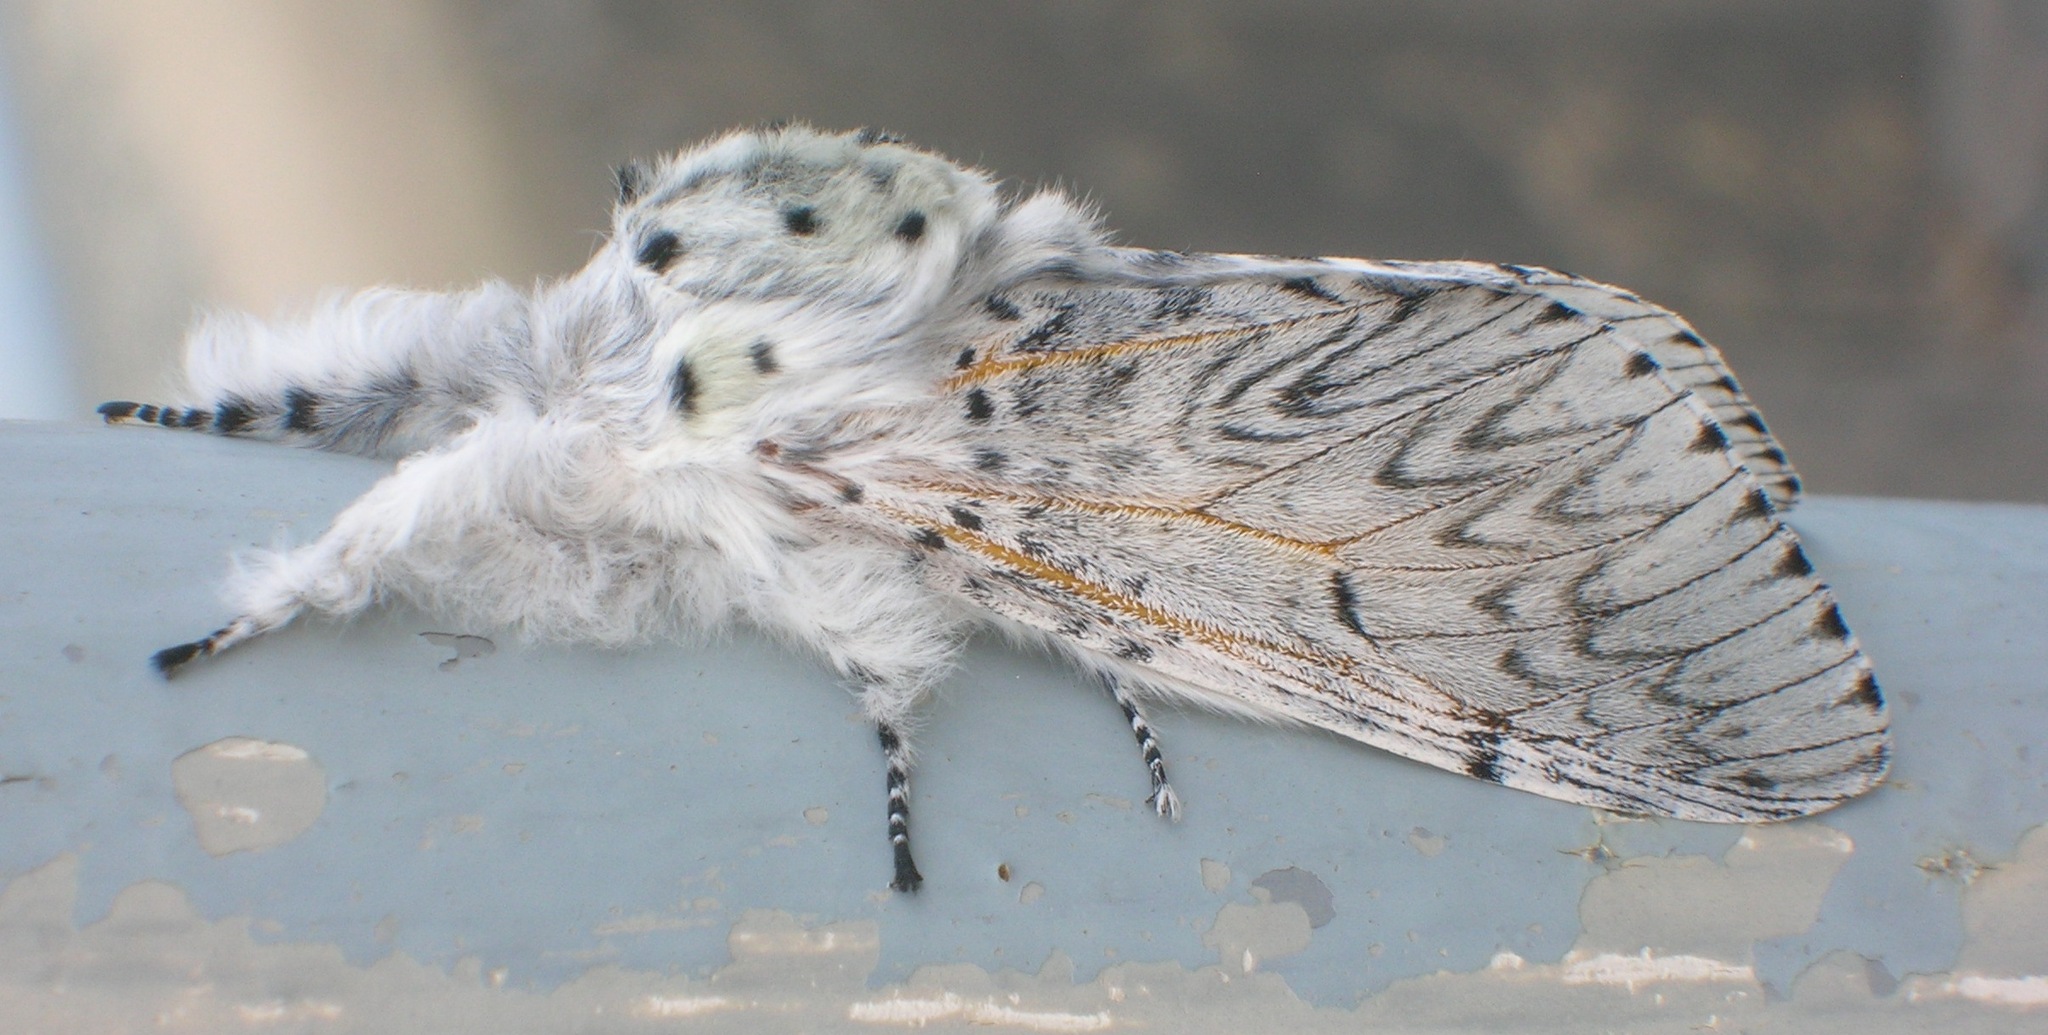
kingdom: Animalia
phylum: Arthropoda
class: Insecta
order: Lepidoptera
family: Notodontidae
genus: Cerura
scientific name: Cerura vinula
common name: Puss moth
